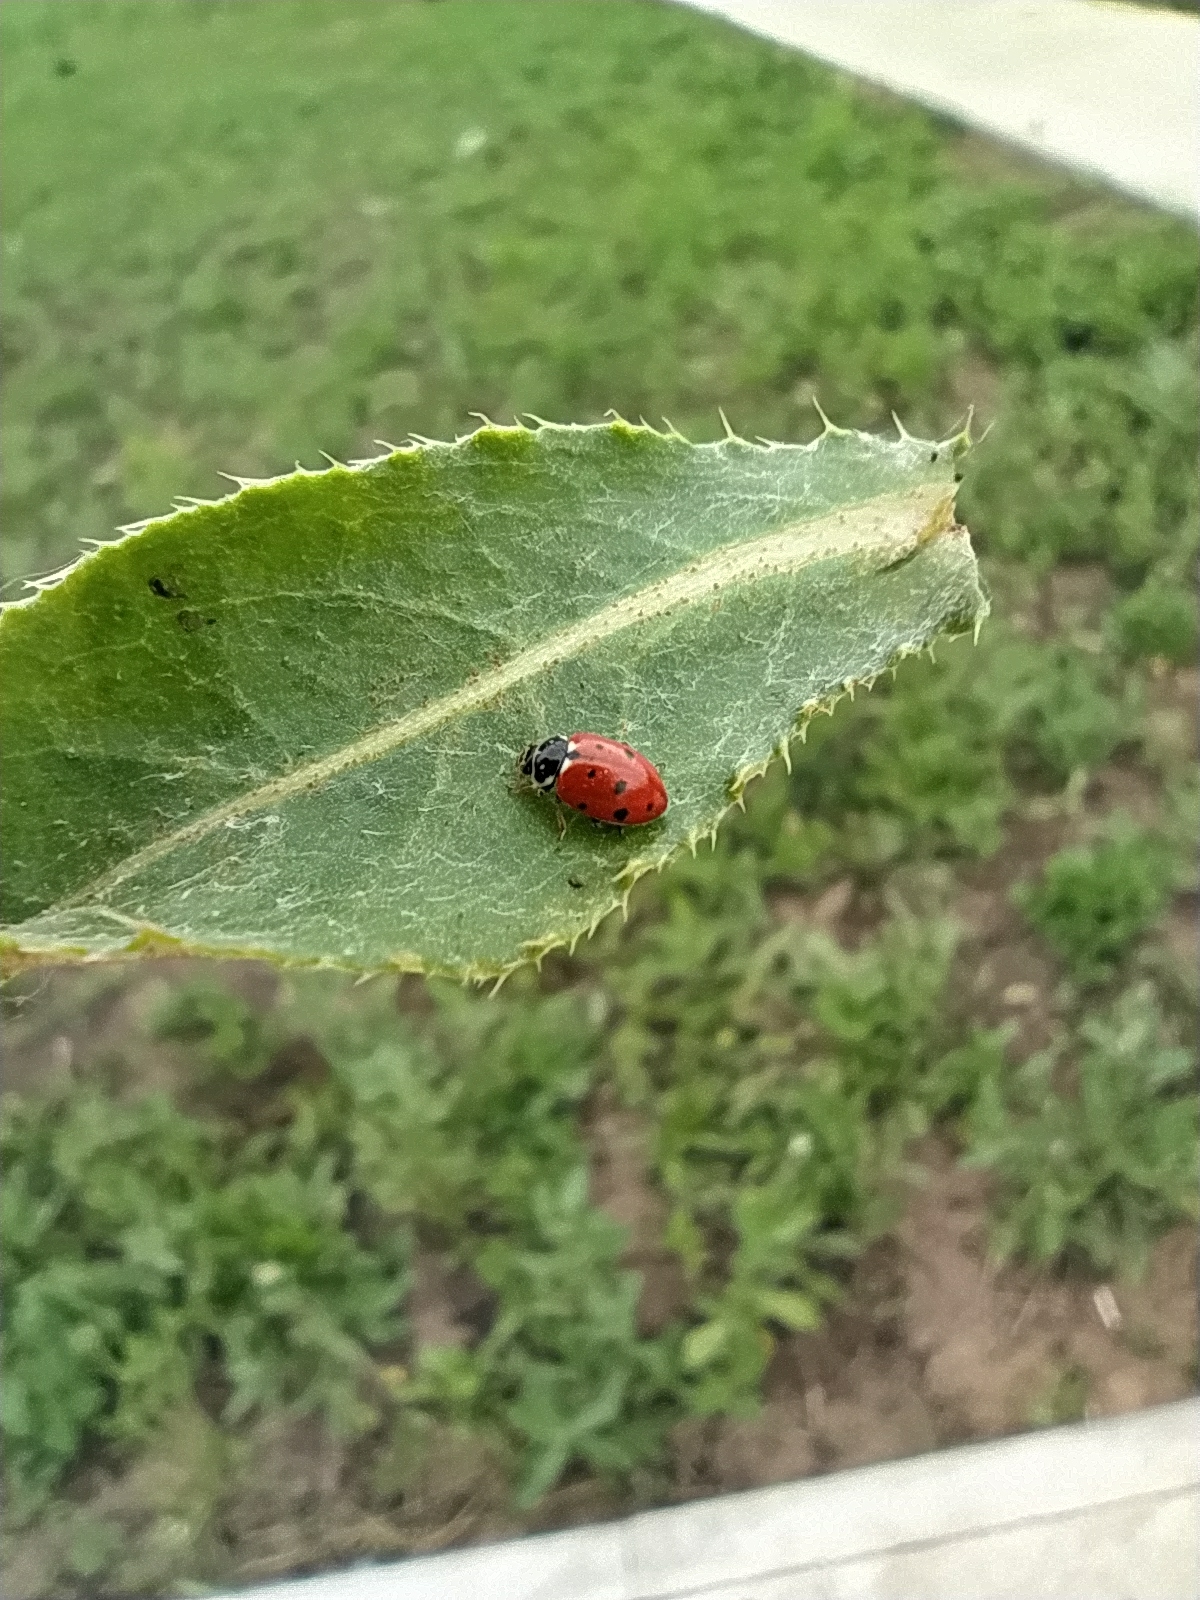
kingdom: Animalia
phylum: Arthropoda
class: Insecta
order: Coleoptera
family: Coccinellidae
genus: Hippodamia
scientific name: Hippodamia variegata
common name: Ladybird beetle
